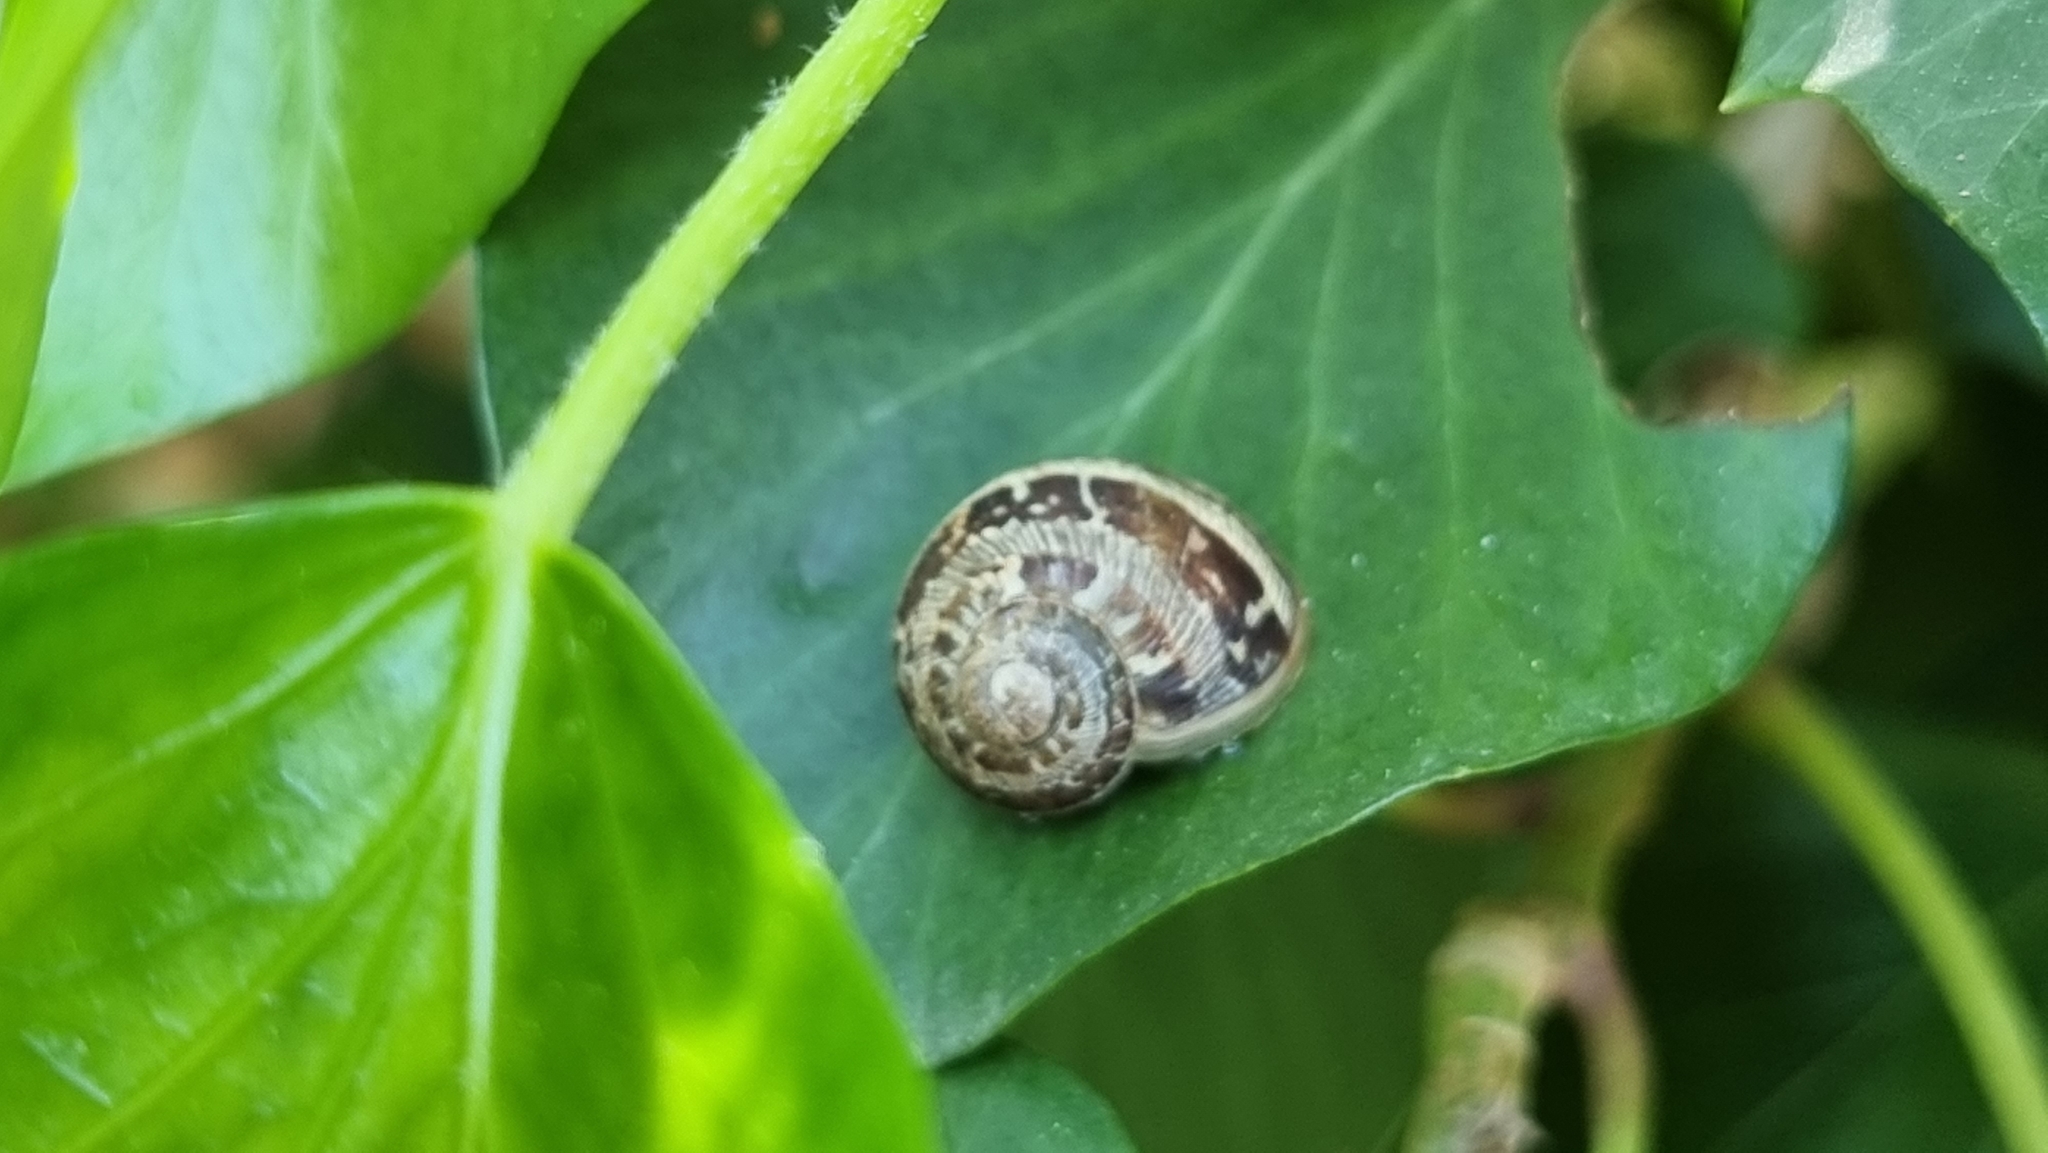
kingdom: Animalia
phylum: Mollusca
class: Gastropoda
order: Stylommatophora
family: Helicidae
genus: Cornu
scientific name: Cornu aspersum
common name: Brown garden snail
